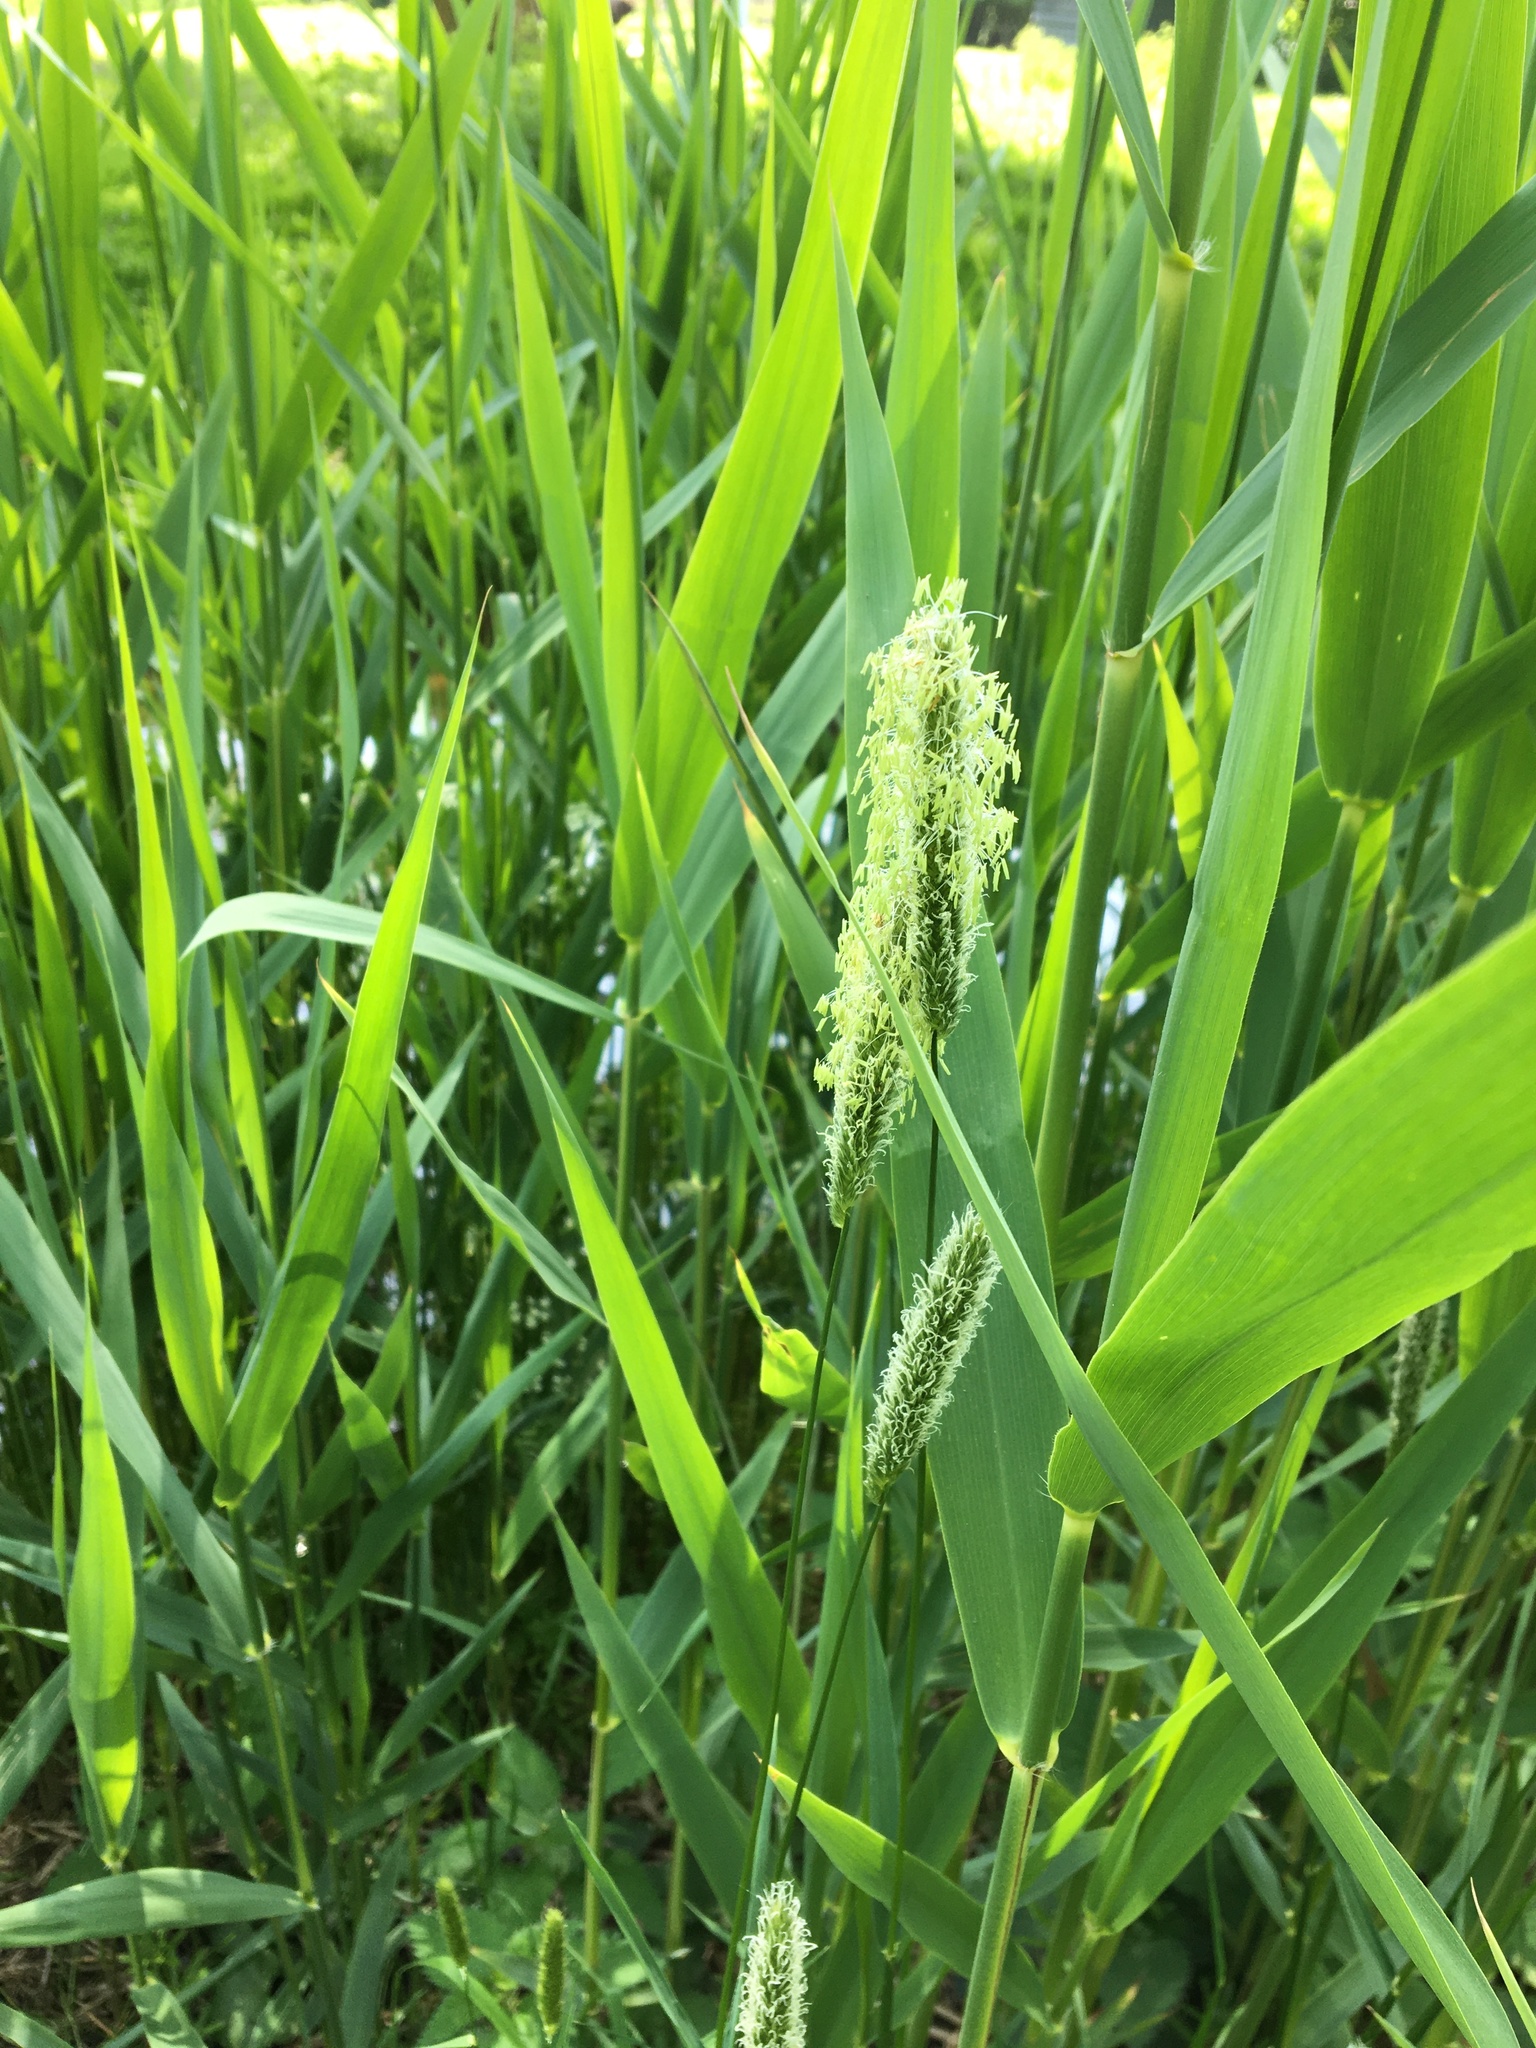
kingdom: Plantae
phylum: Tracheophyta
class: Liliopsida
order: Poales
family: Poaceae
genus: Alopecurus
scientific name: Alopecurus pratensis
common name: Meadow foxtail
